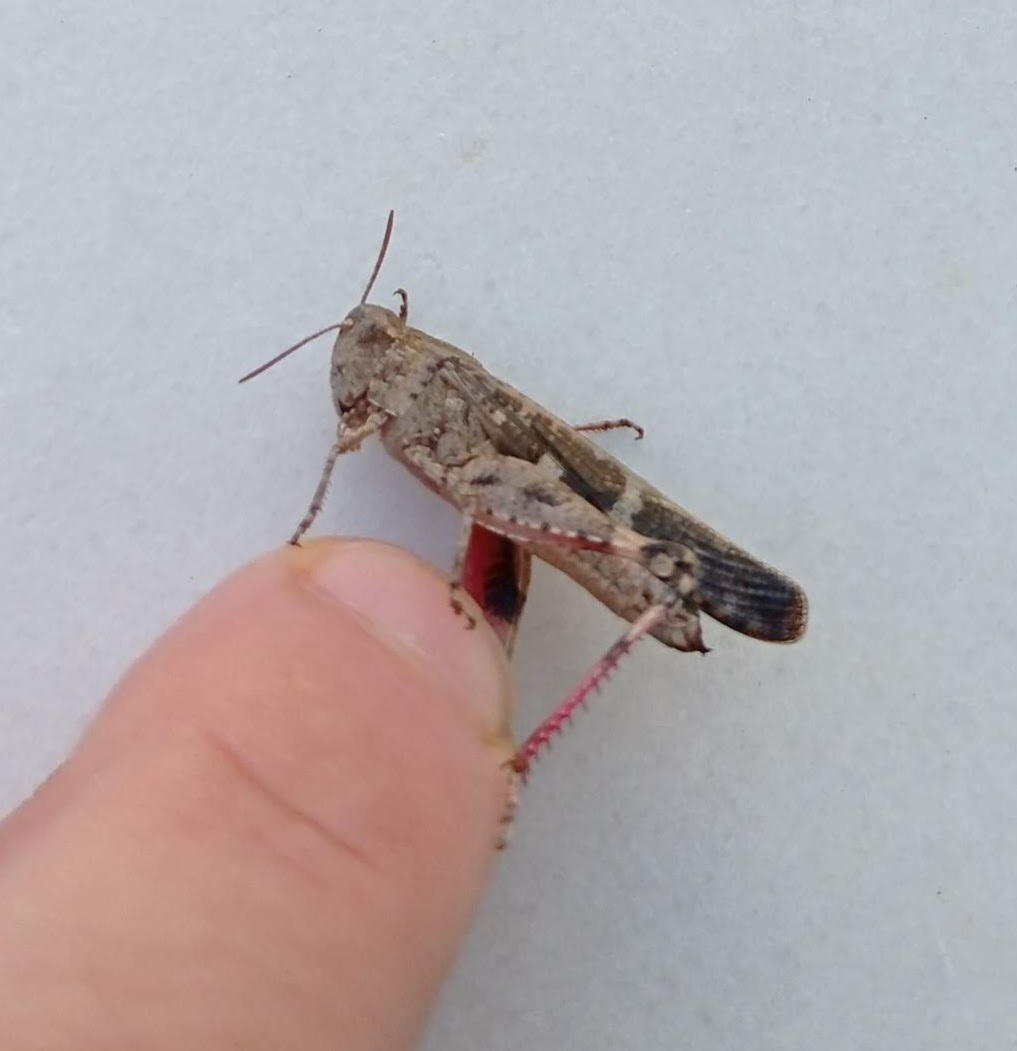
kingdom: Animalia
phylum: Arthropoda
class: Insecta
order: Orthoptera
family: Acrididae
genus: Aiolopus
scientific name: Aiolopus strepens
